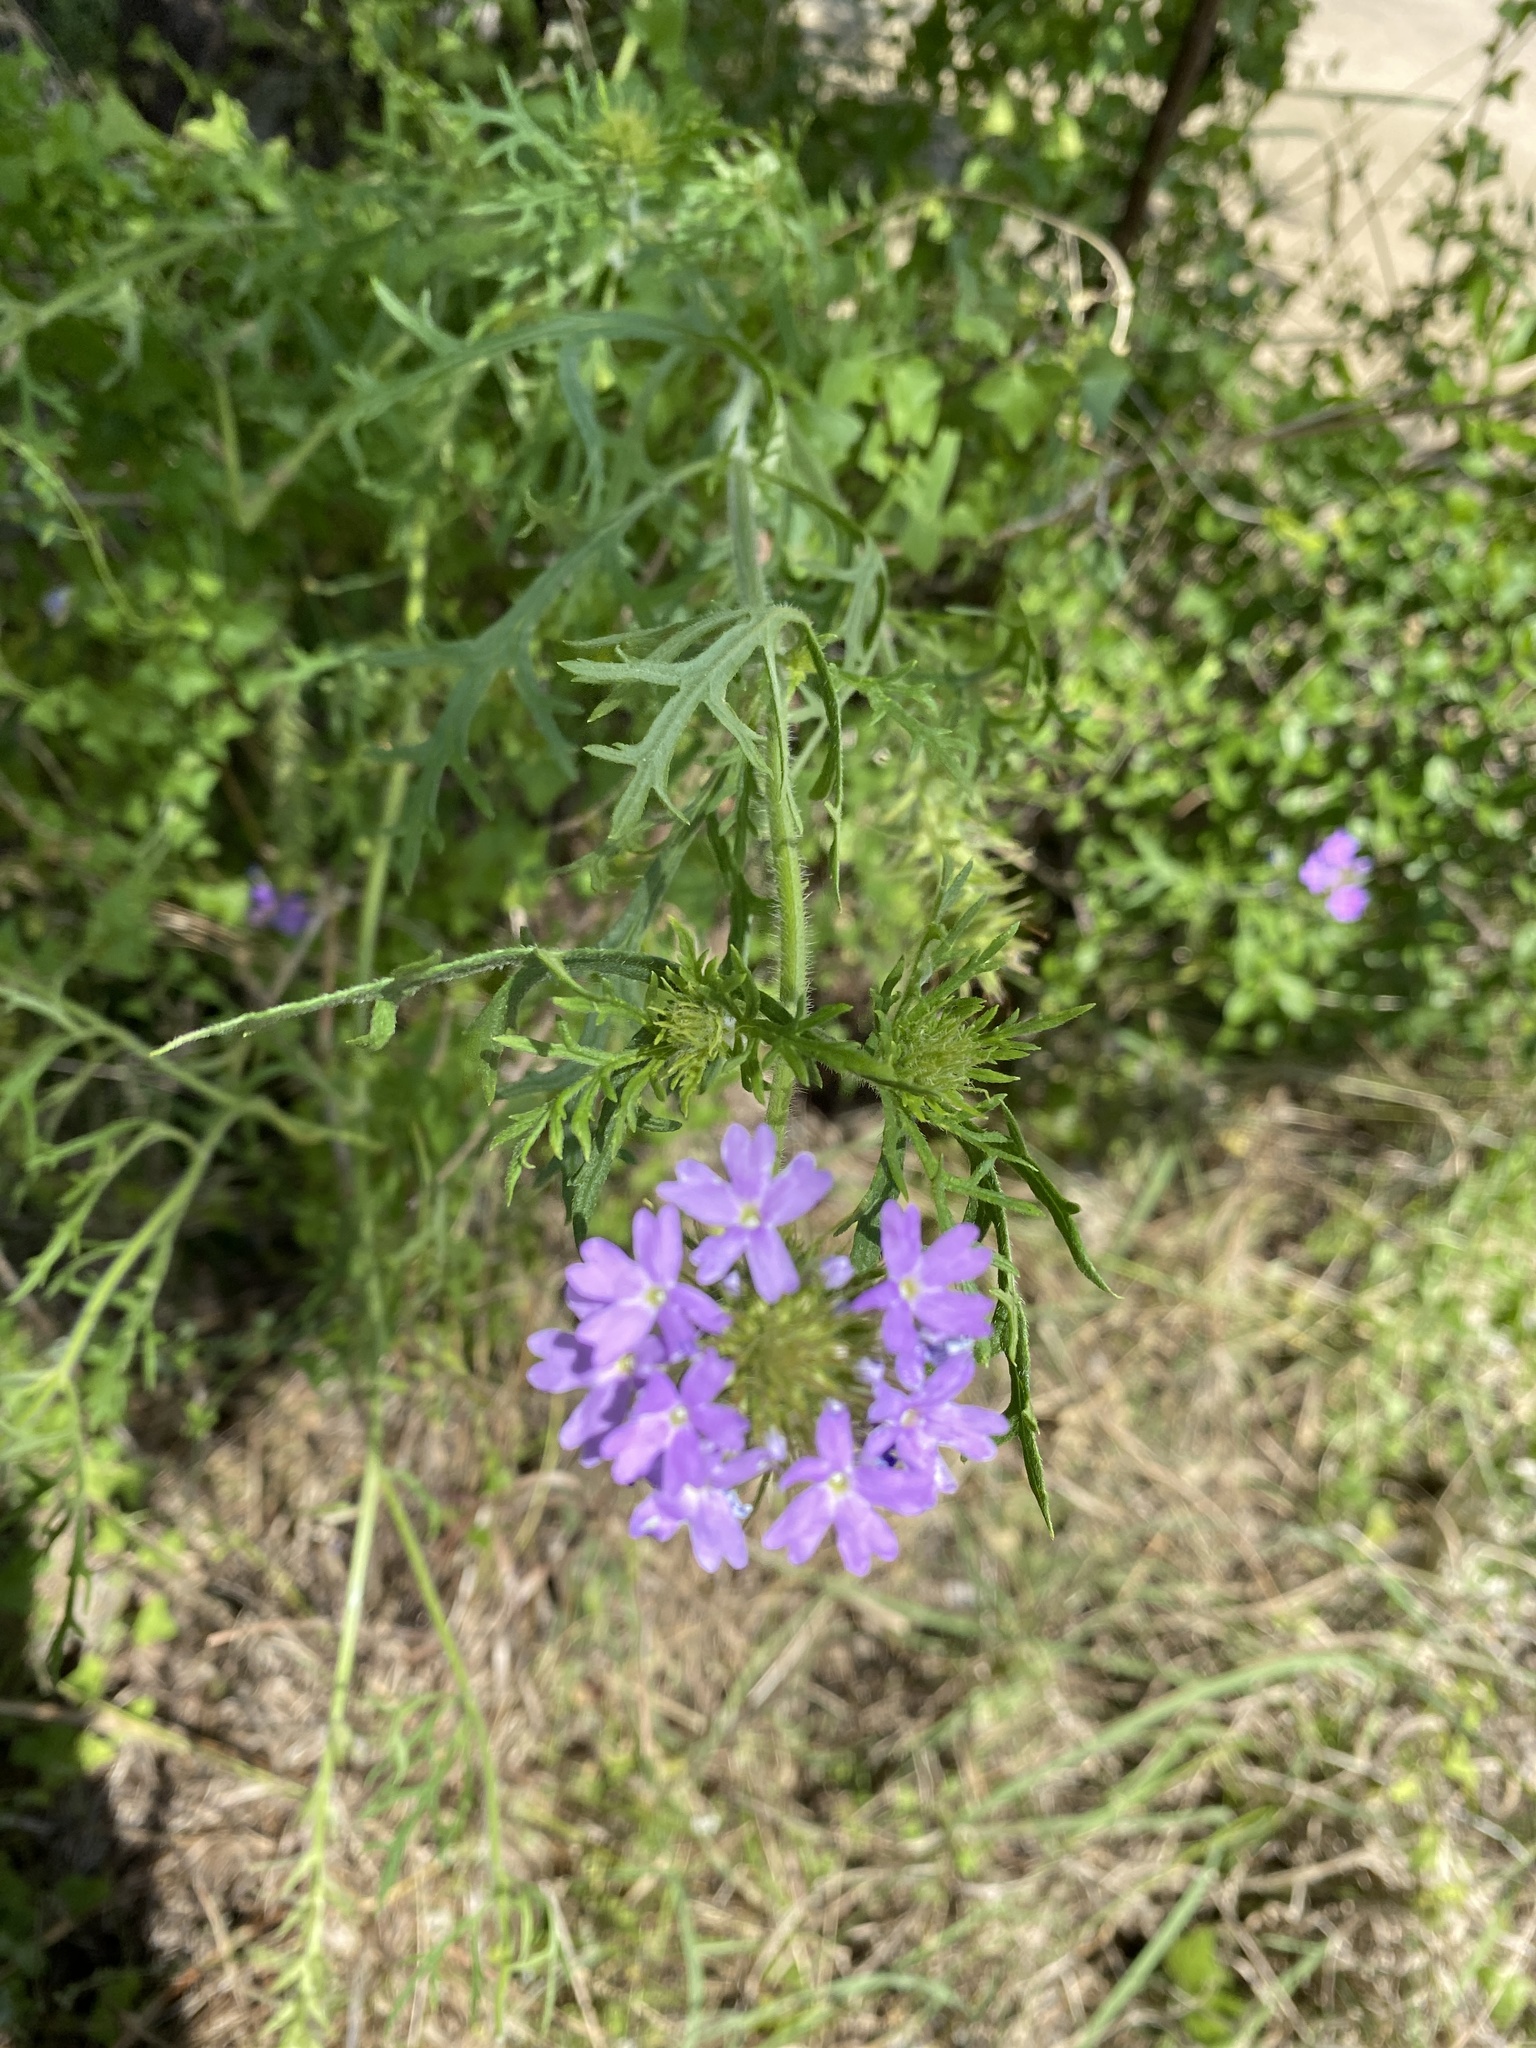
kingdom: Plantae
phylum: Tracheophyta
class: Magnoliopsida
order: Lamiales
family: Verbenaceae
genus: Verbena
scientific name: Verbena bipinnatifida
